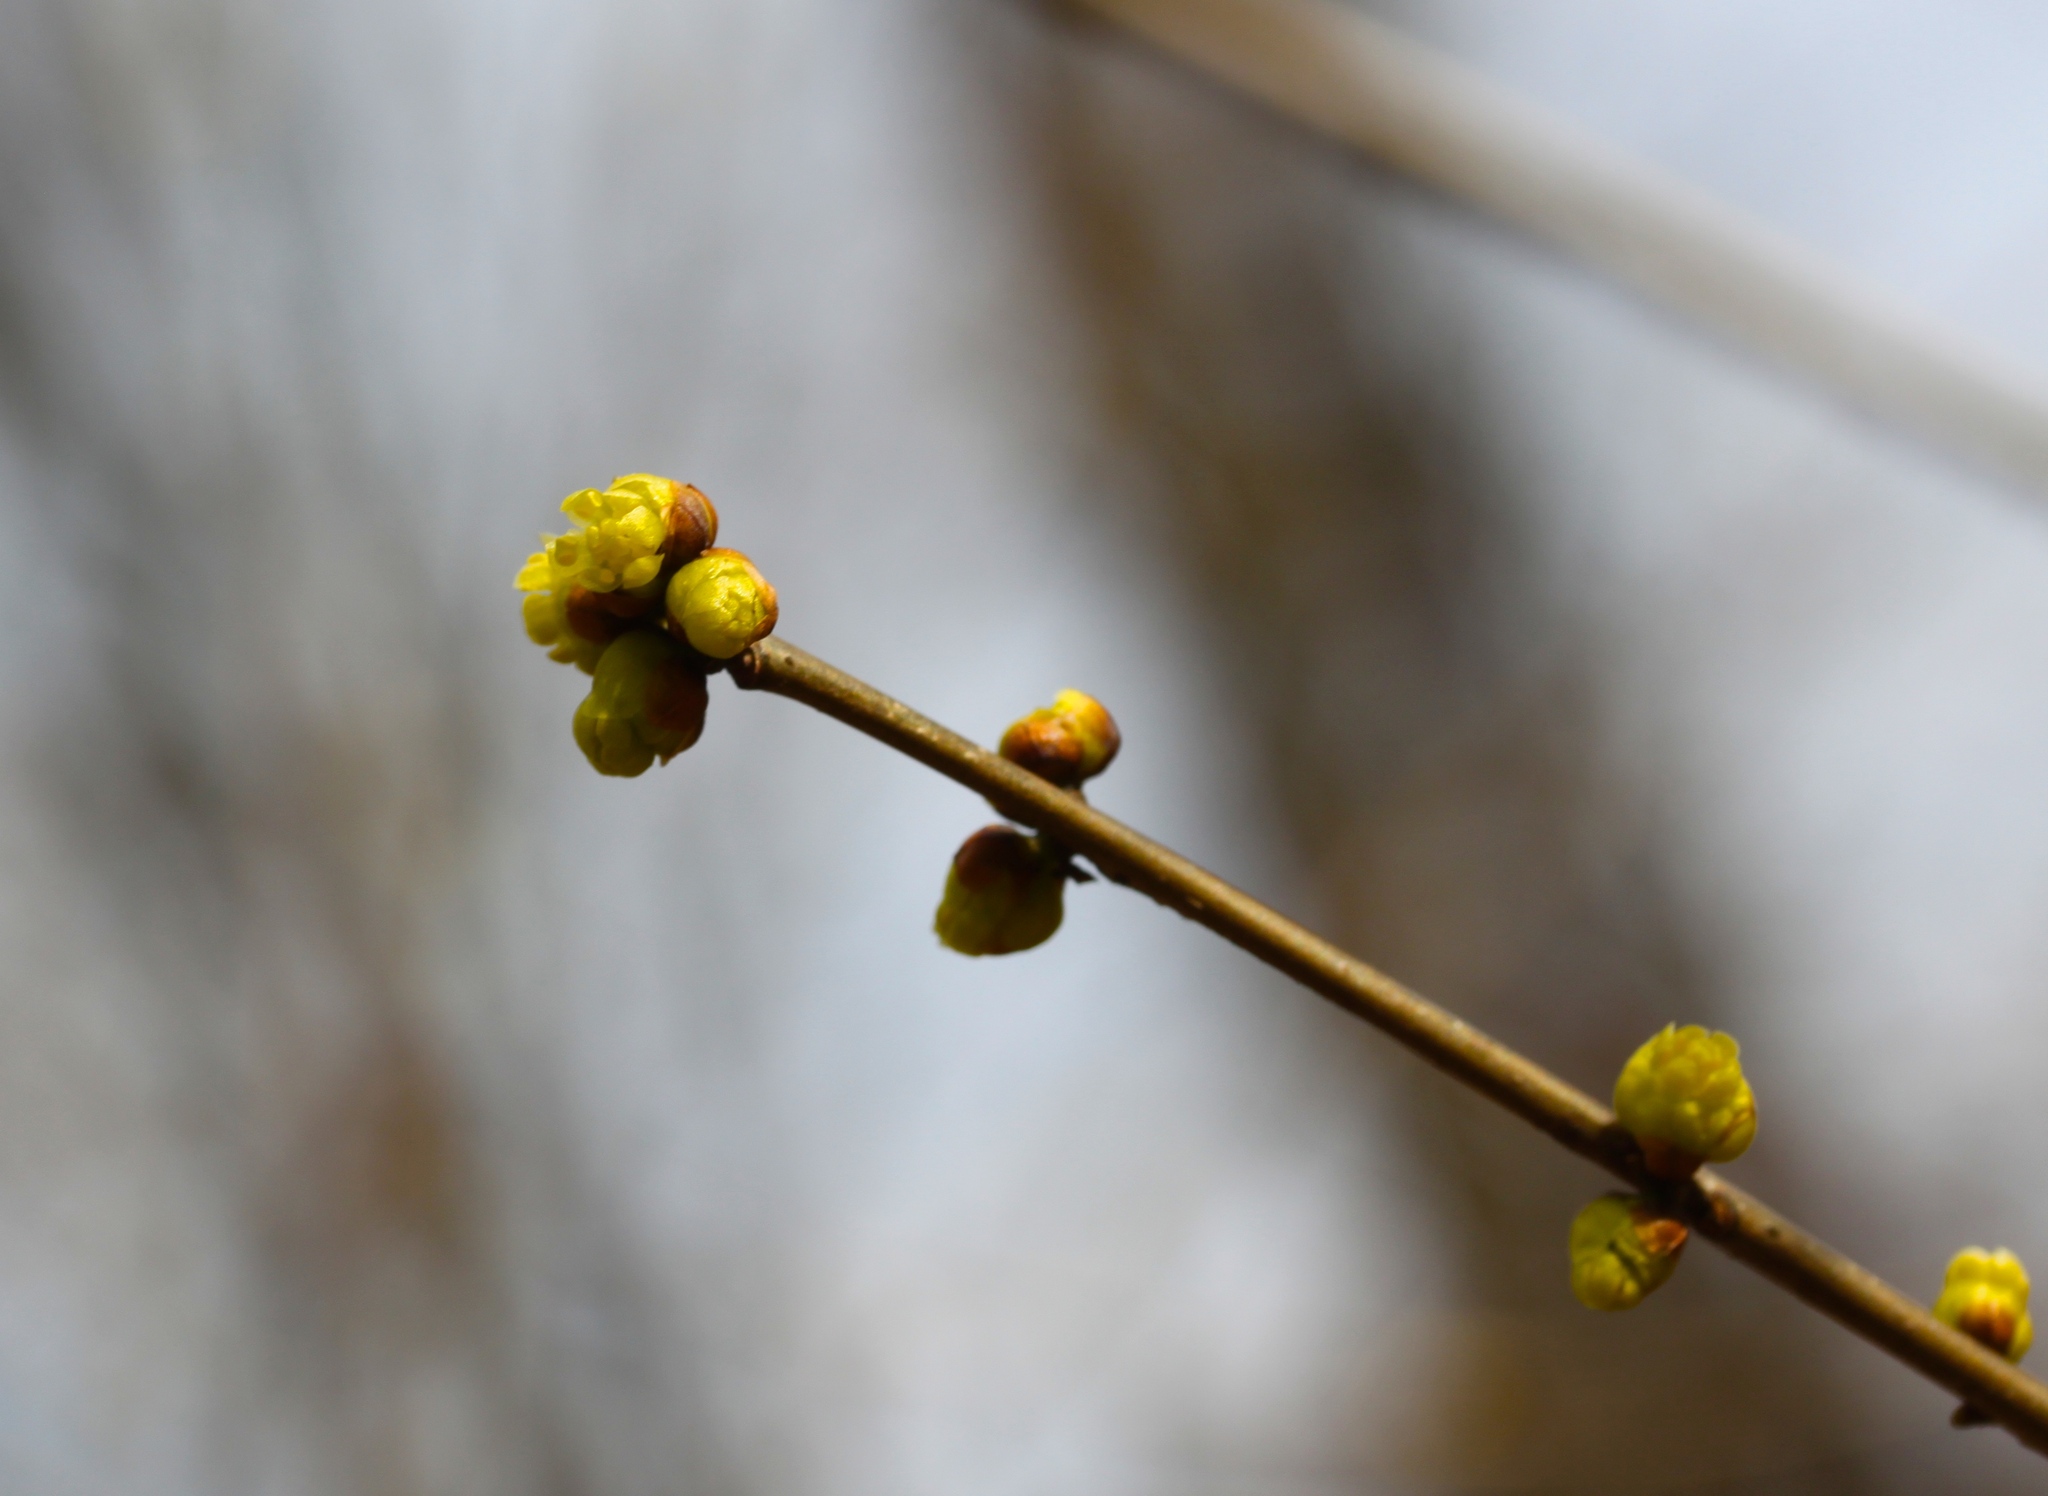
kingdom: Plantae
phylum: Tracheophyta
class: Magnoliopsida
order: Laurales
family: Lauraceae
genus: Lindera
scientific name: Lindera benzoin
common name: Spicebush
